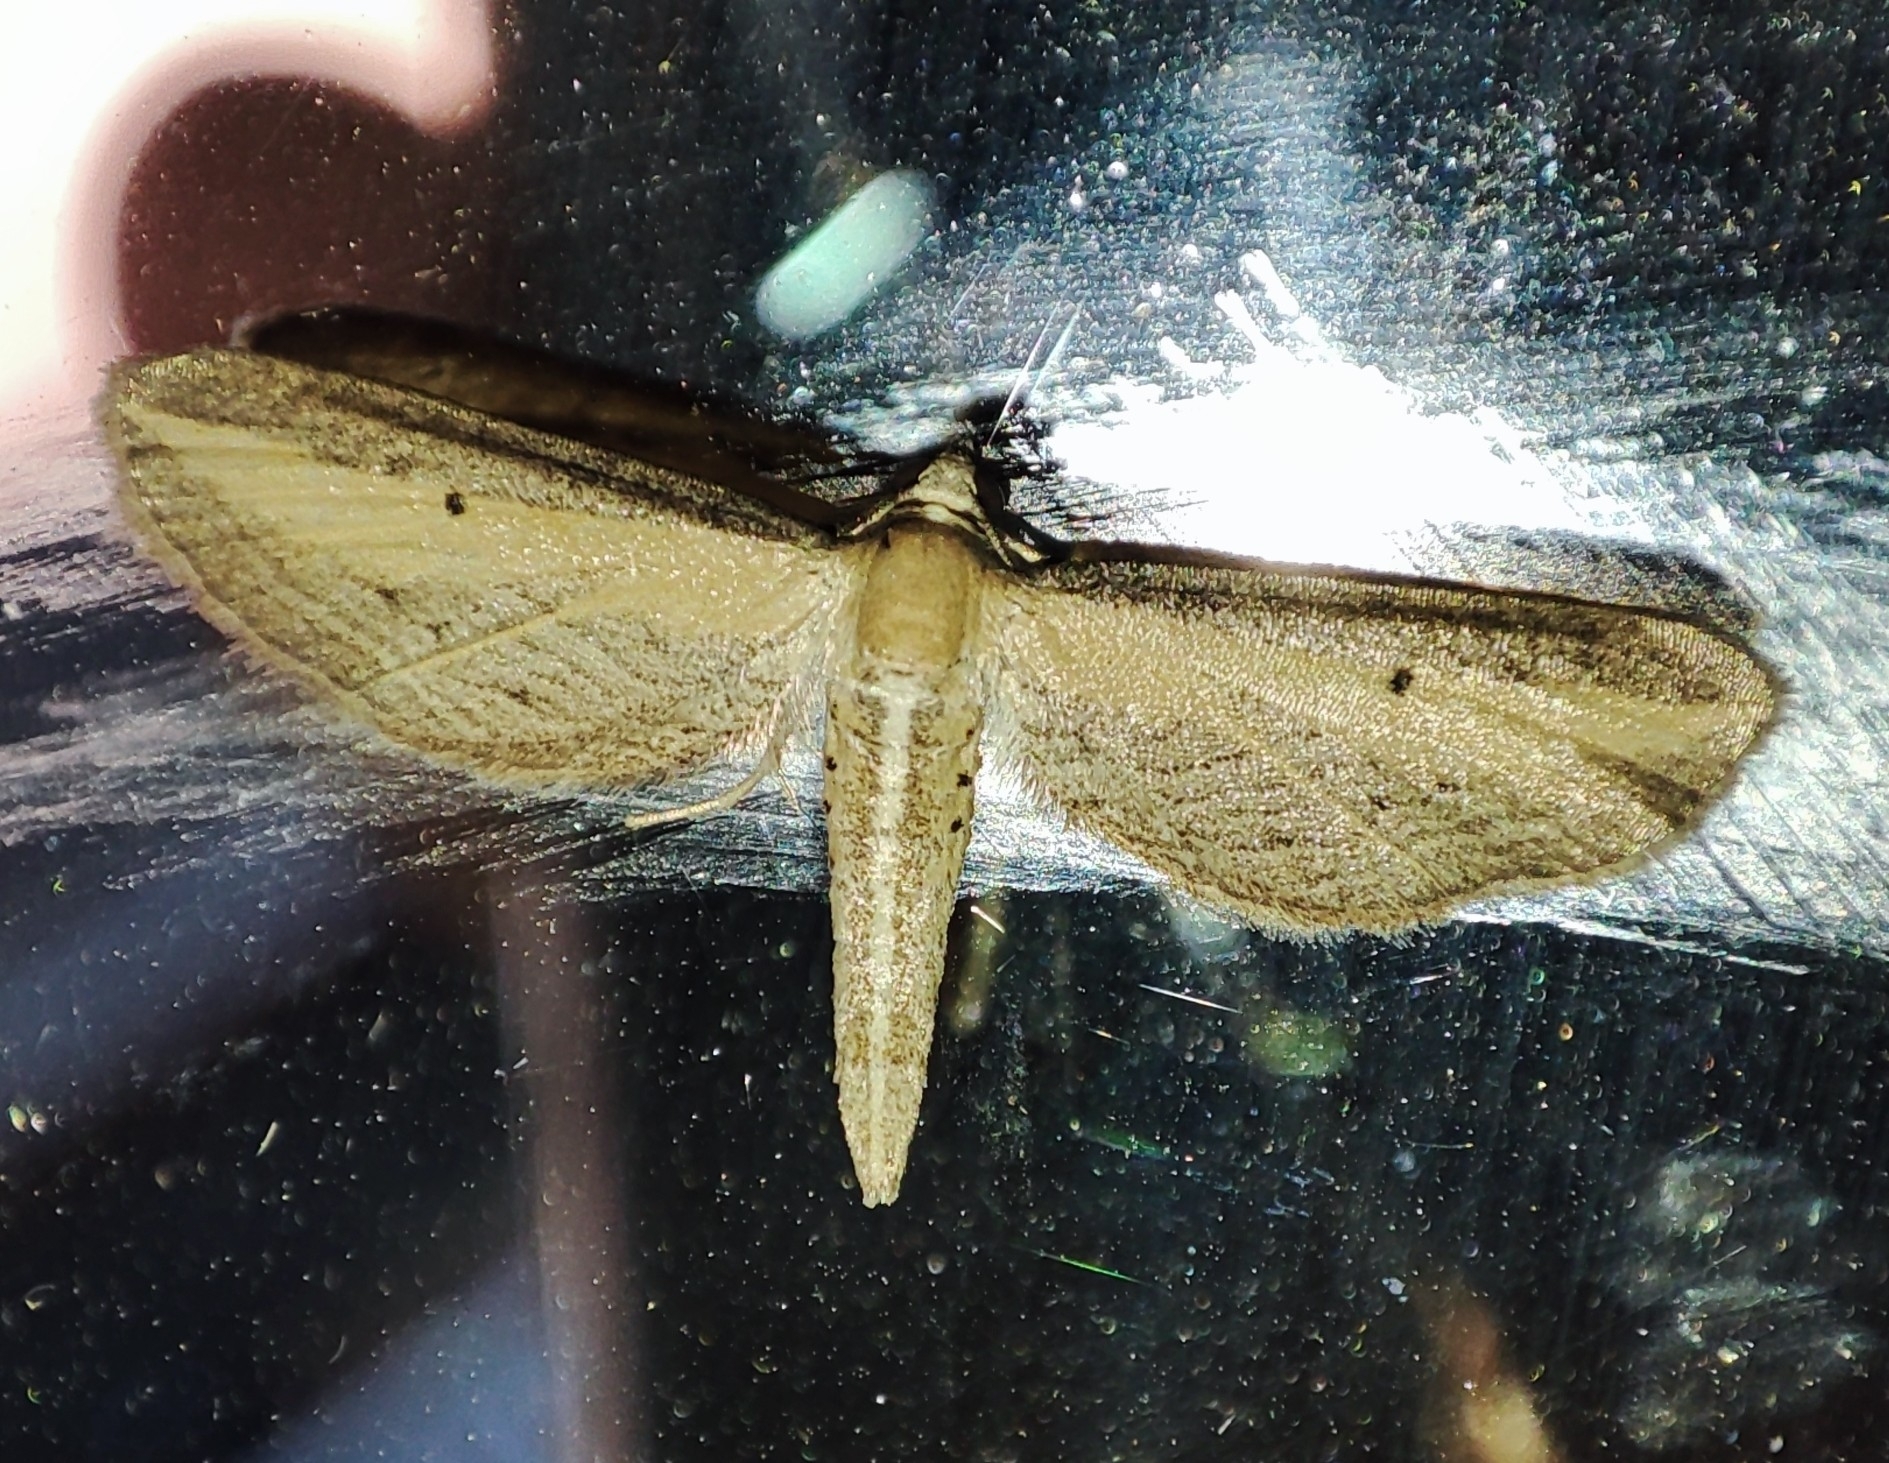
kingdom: Animalia
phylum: Arthropoda
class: Insecta
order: Lepidoptera
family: Geometridae
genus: Eupithecia
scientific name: Eupithecia biornata
